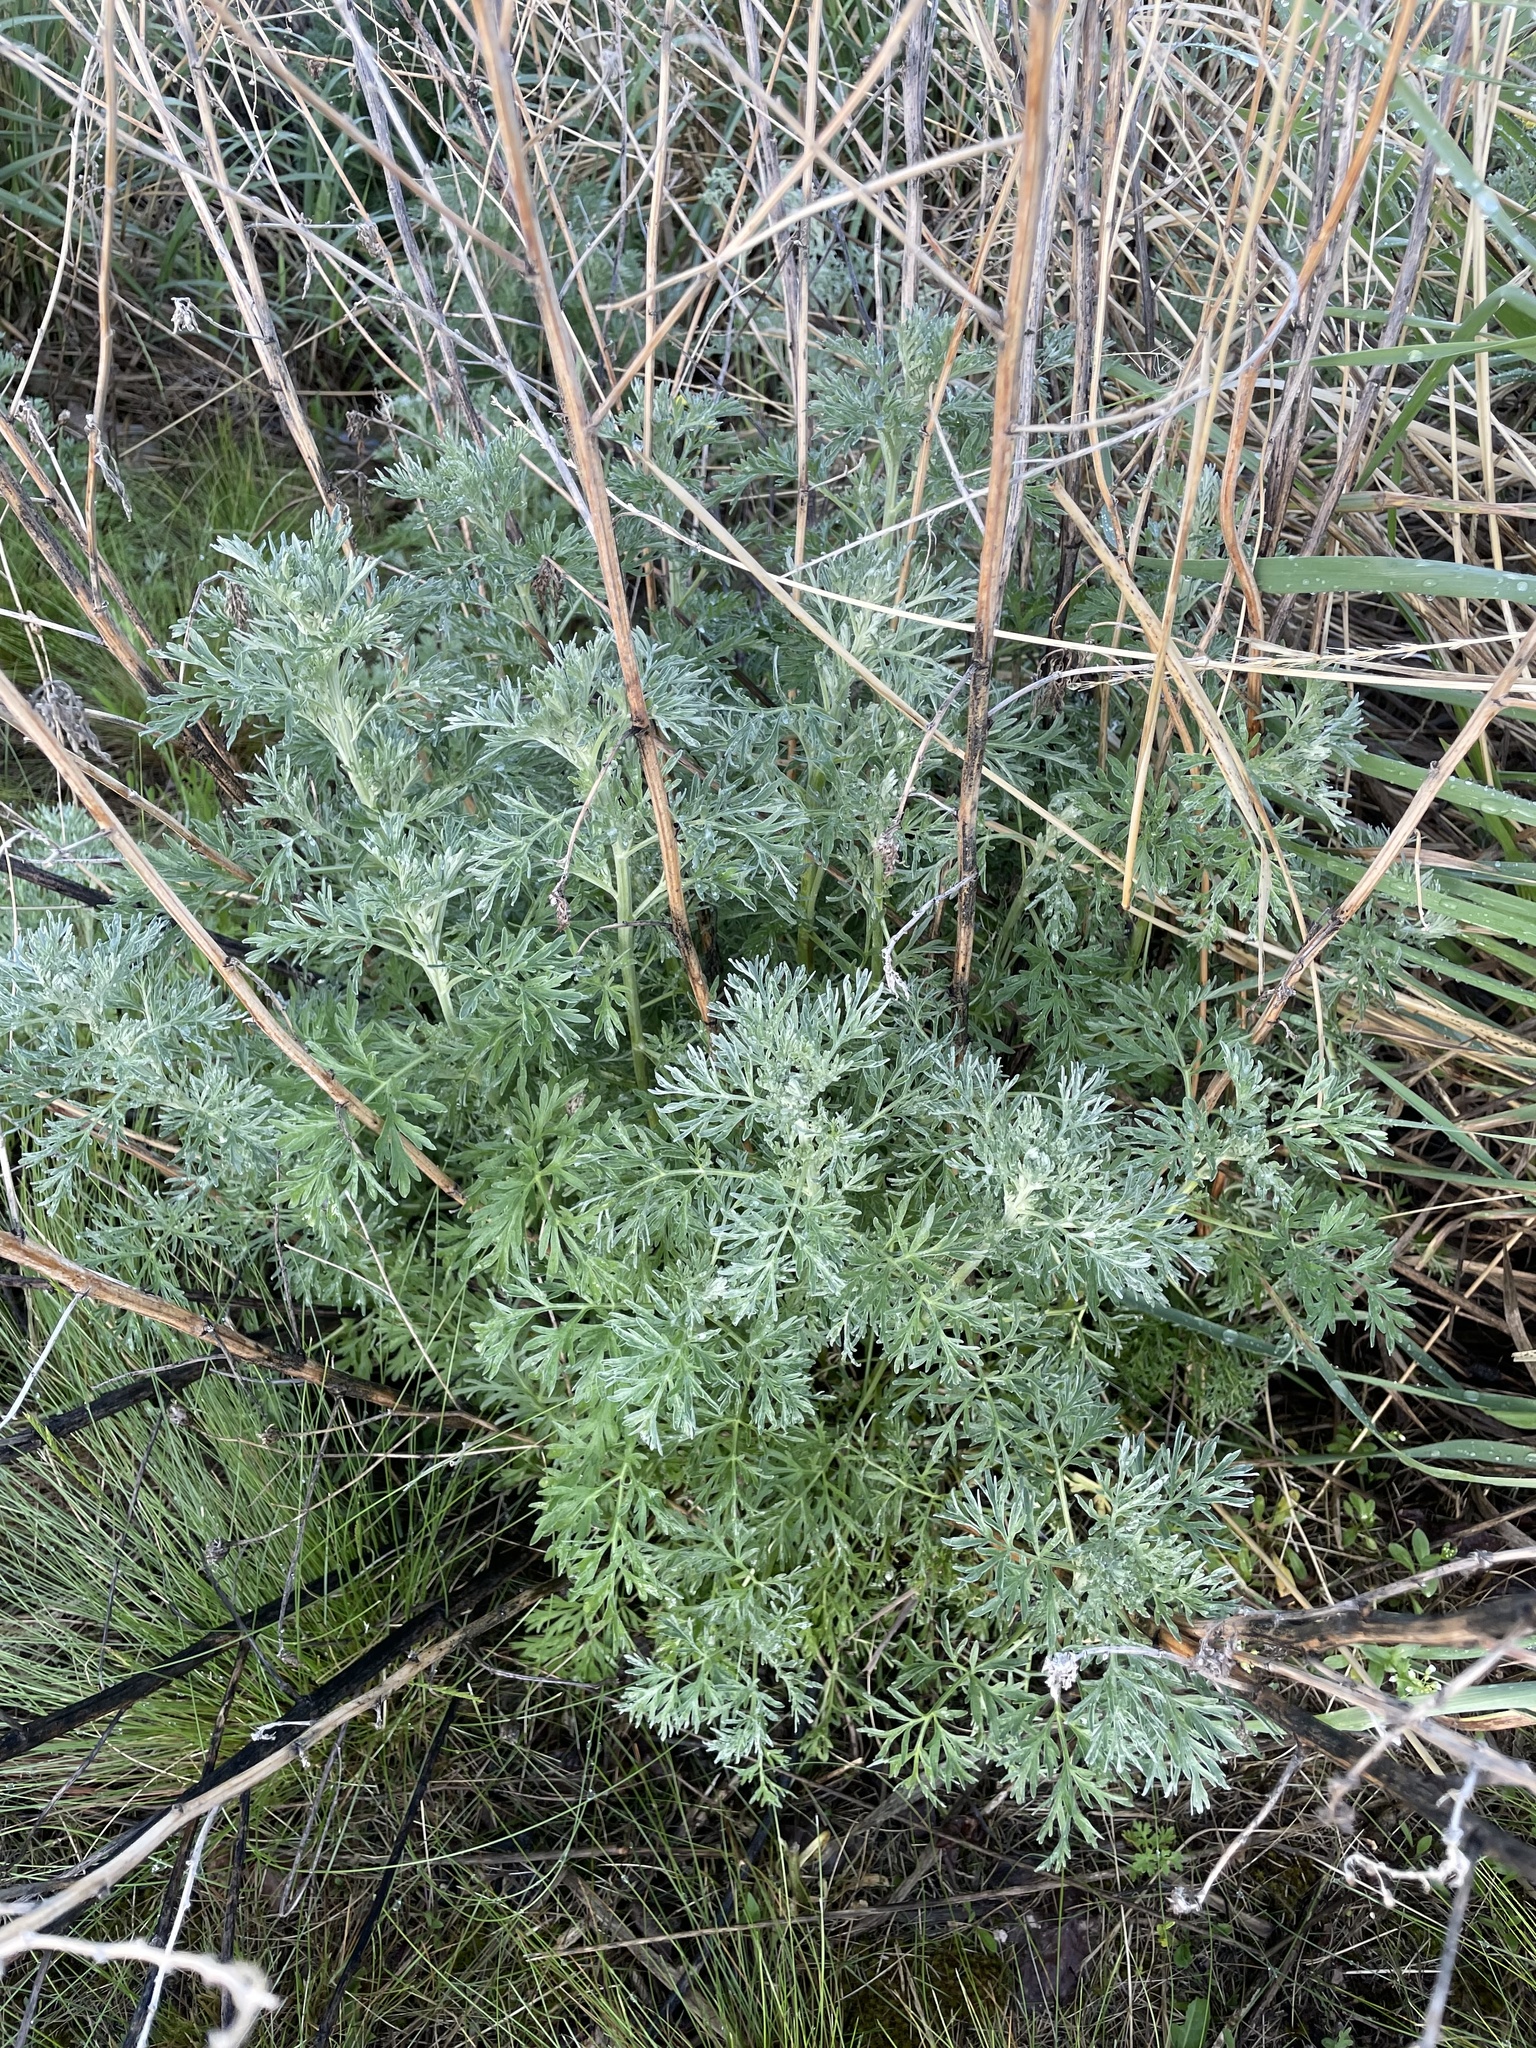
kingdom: Plantae
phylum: Tracheophyta
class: Magnoliopsida
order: Asterales
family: Asteraceae
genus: Artemisia
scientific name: Artemisia absinthium
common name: Wormwood
